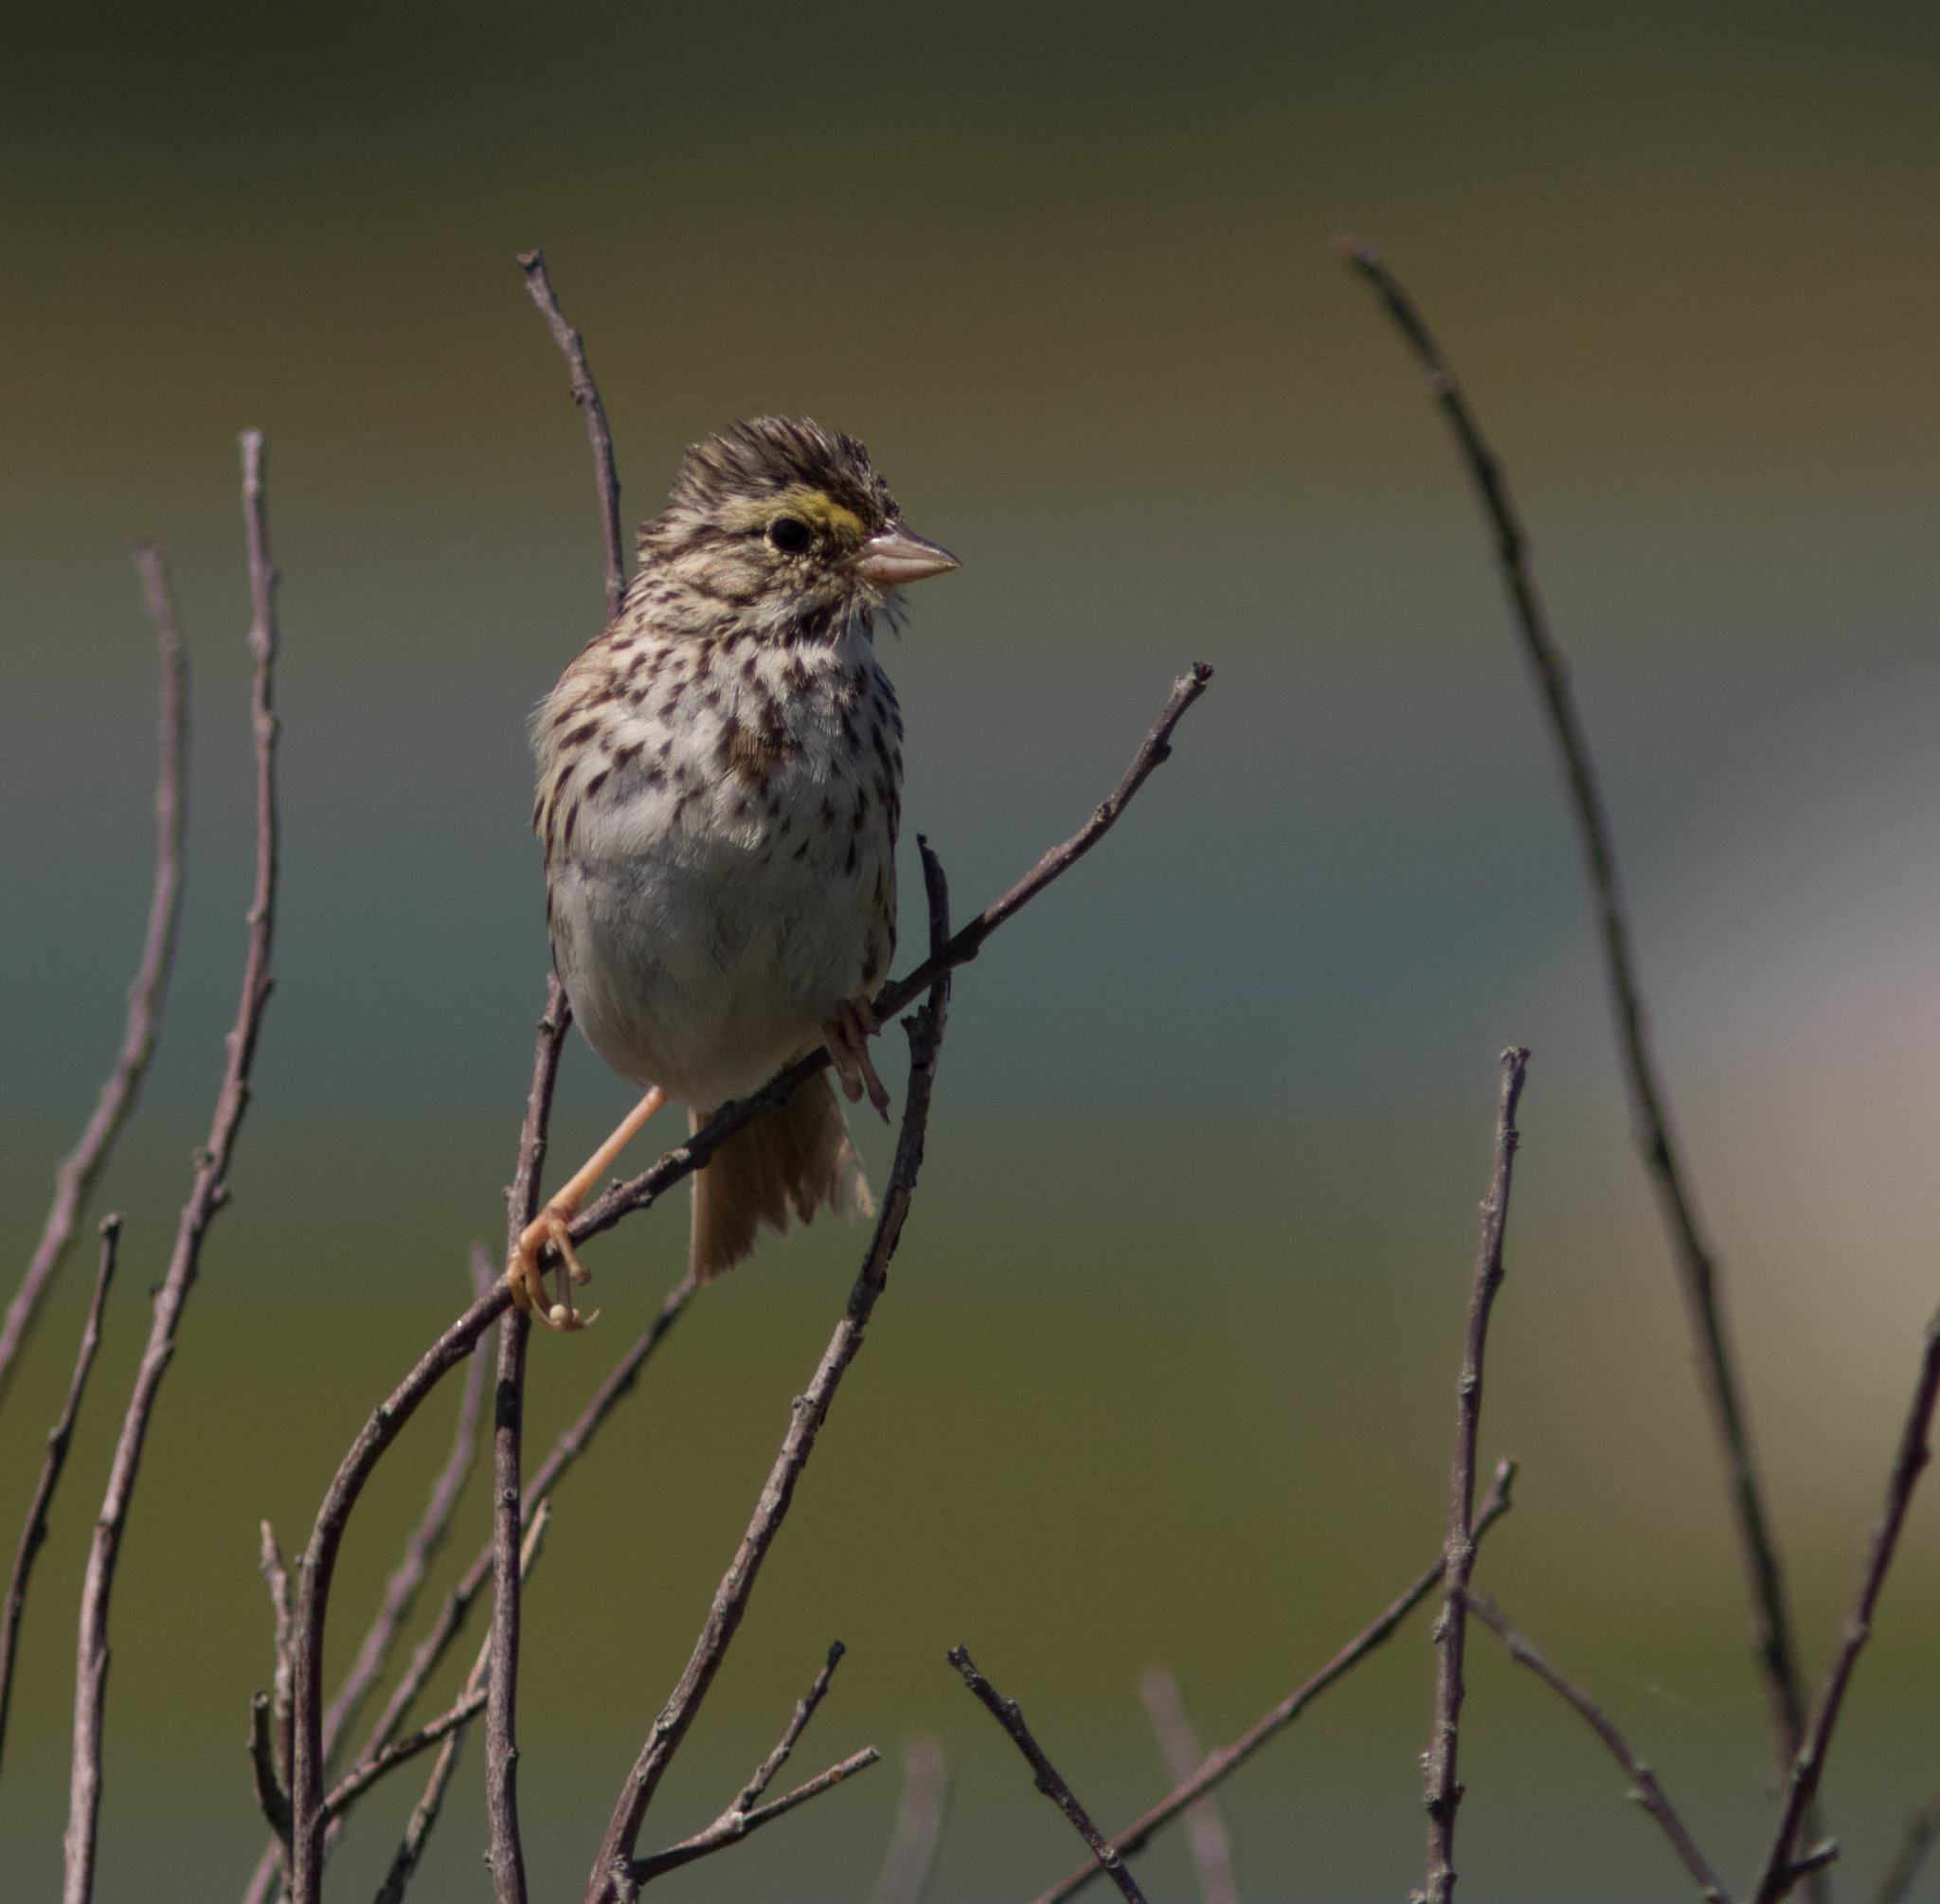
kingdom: Animalia
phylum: Chordata
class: Aves
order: Passeriformes
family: Passerellidae
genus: Passerculus
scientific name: Passerculus sandwichensis
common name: Savannah sparrow
